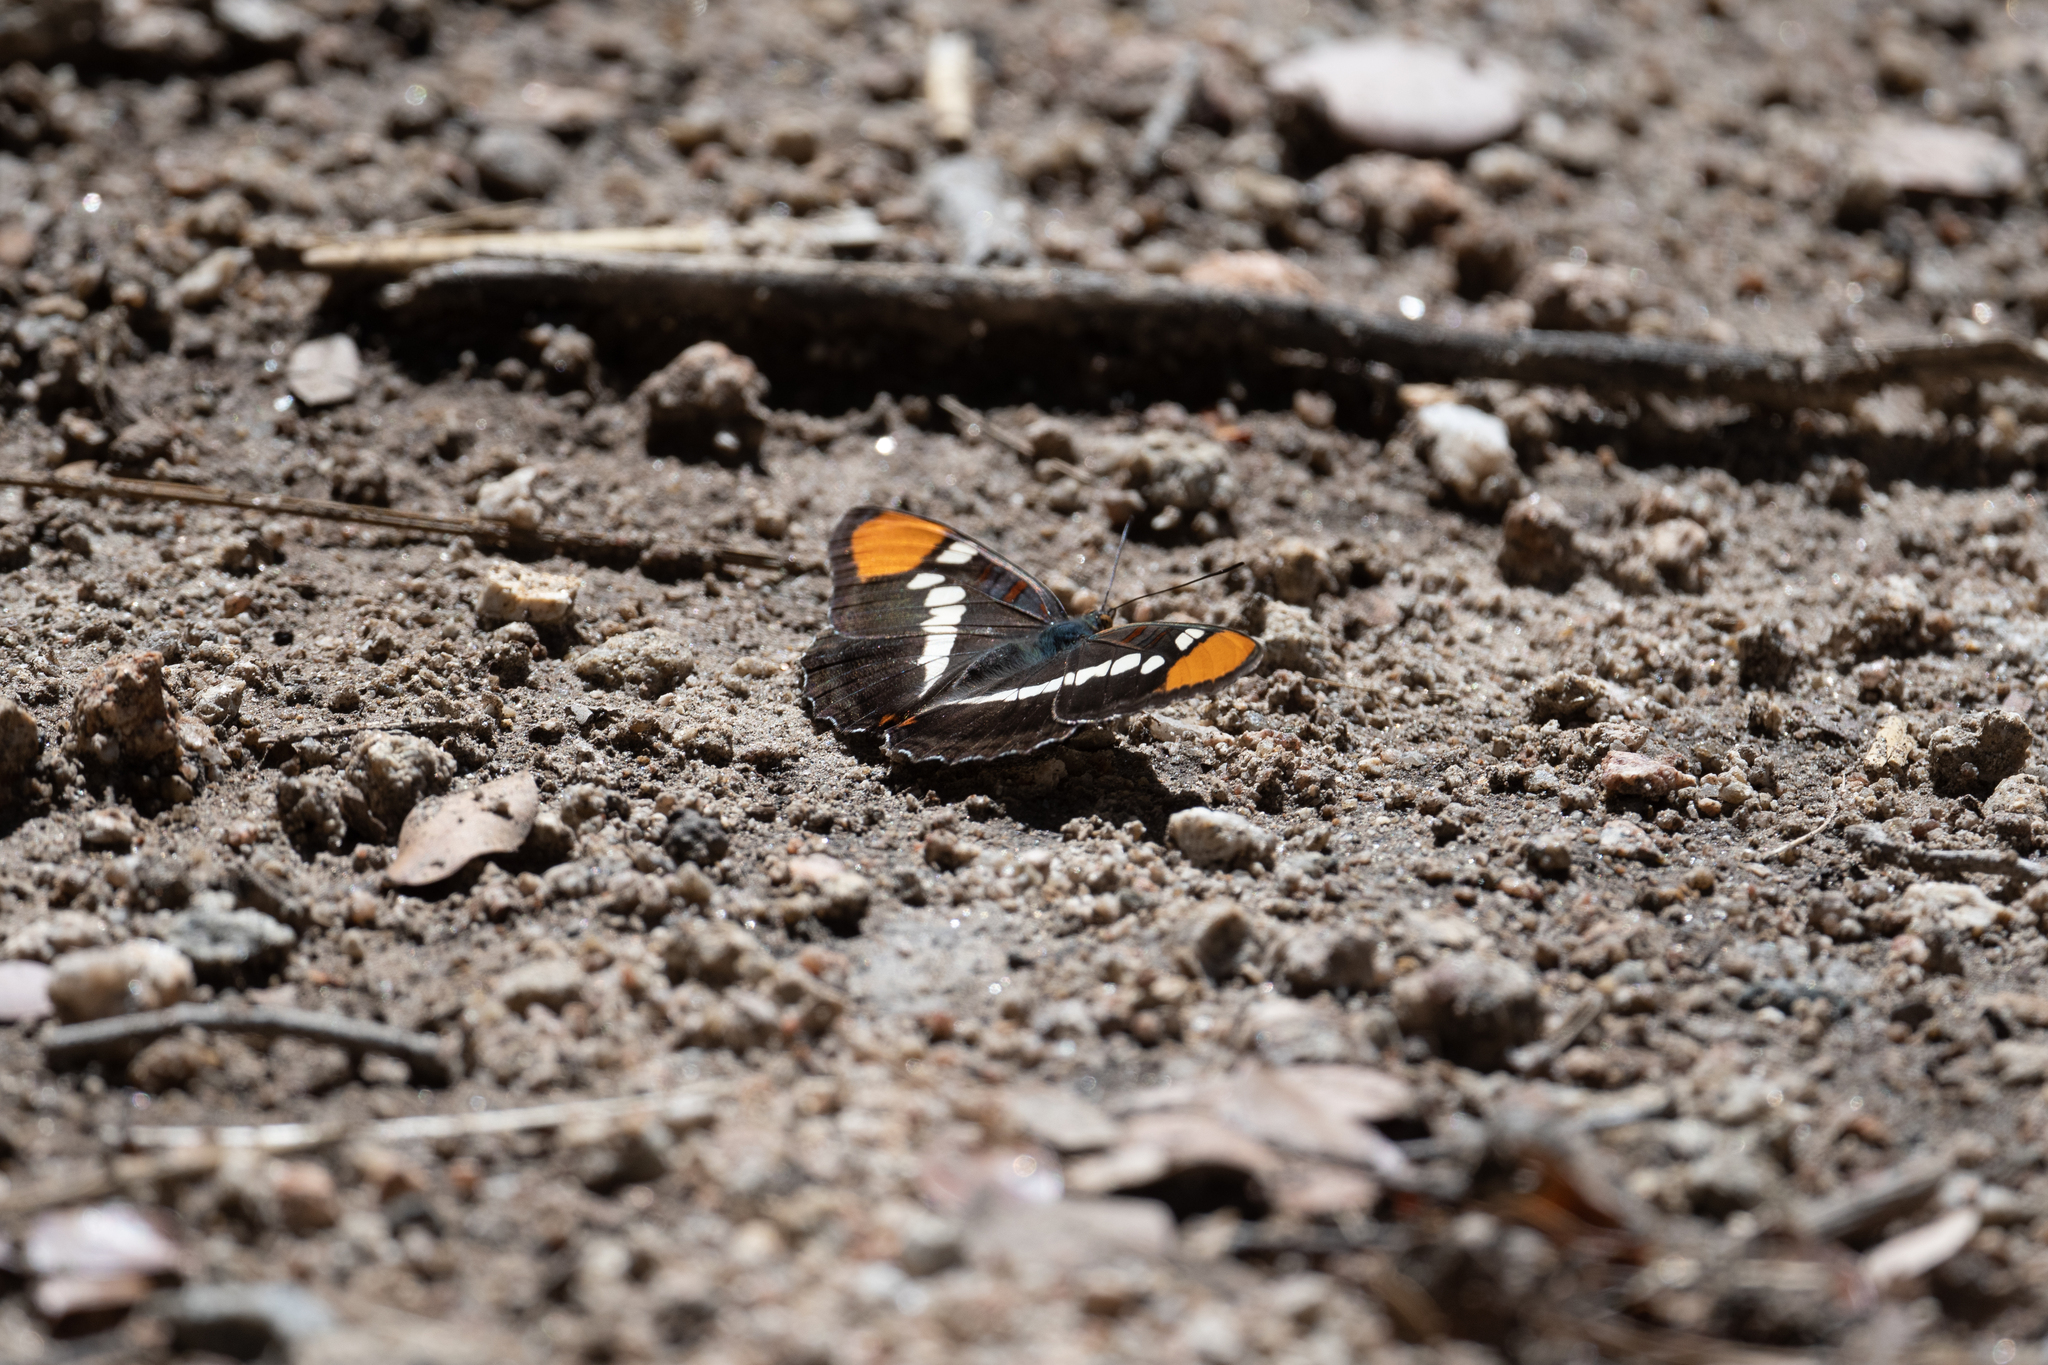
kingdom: Animalia
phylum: Arthropoda
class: Insecta
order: Lepidoptera
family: Nymphalidae
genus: Limenitis
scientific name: Limenitis bredowii
